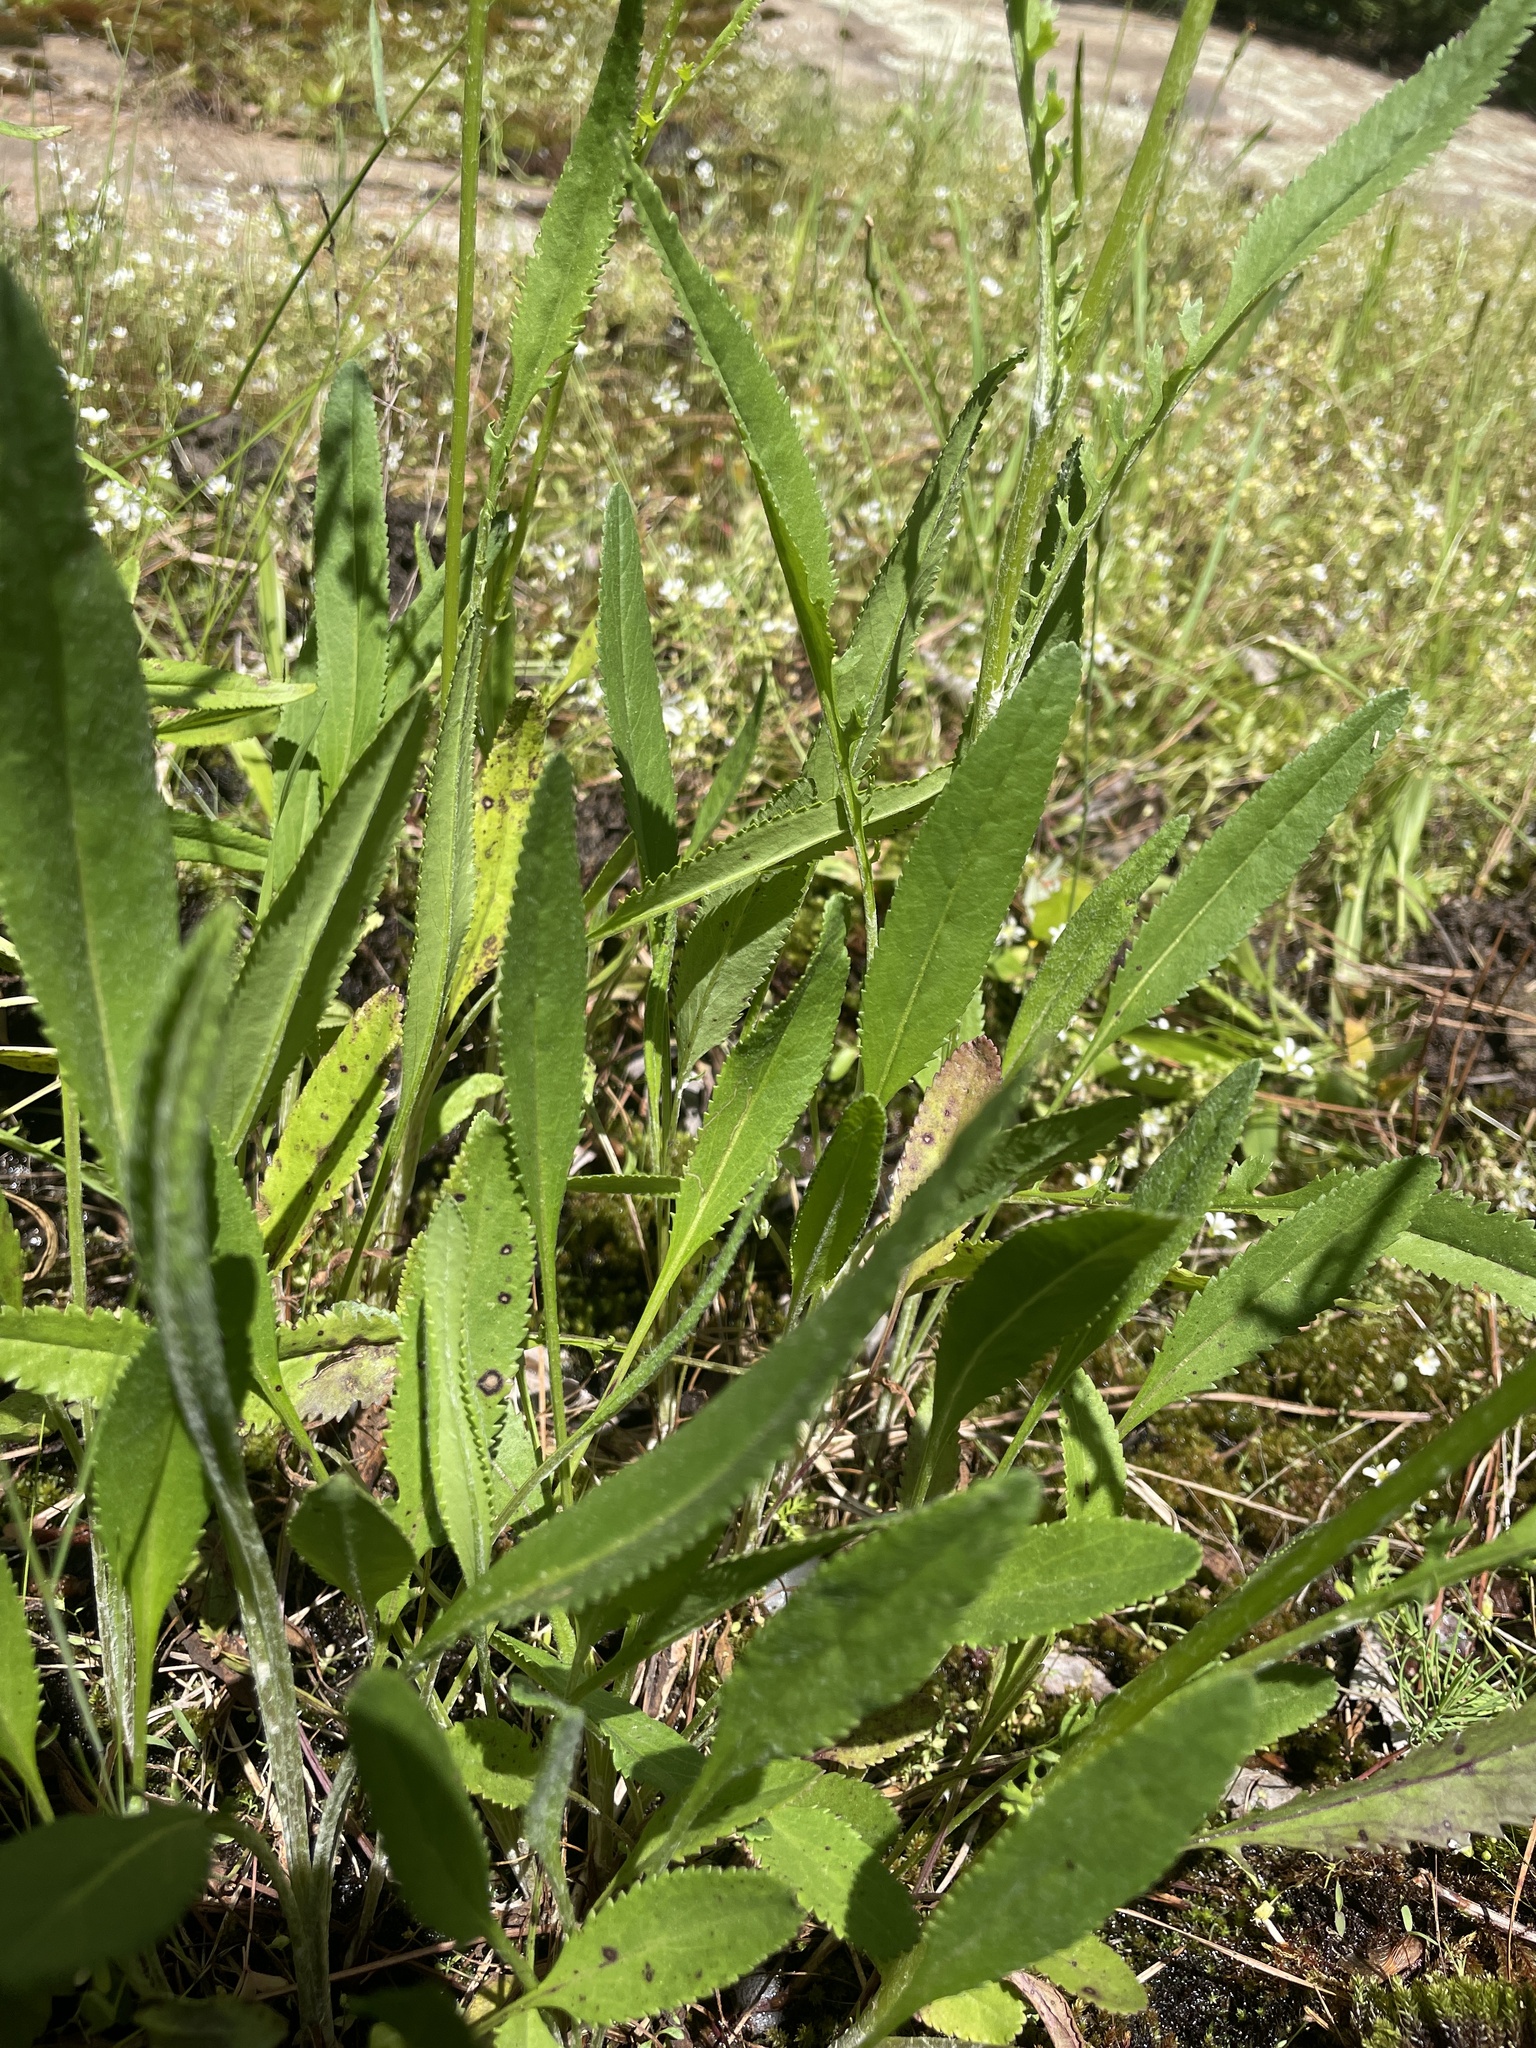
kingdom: Plantae
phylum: Tracheophyta
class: Magnoliopsida
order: Asterales
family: Asteraceae
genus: Packera
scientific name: Packera anonyma
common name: Small ragwort
